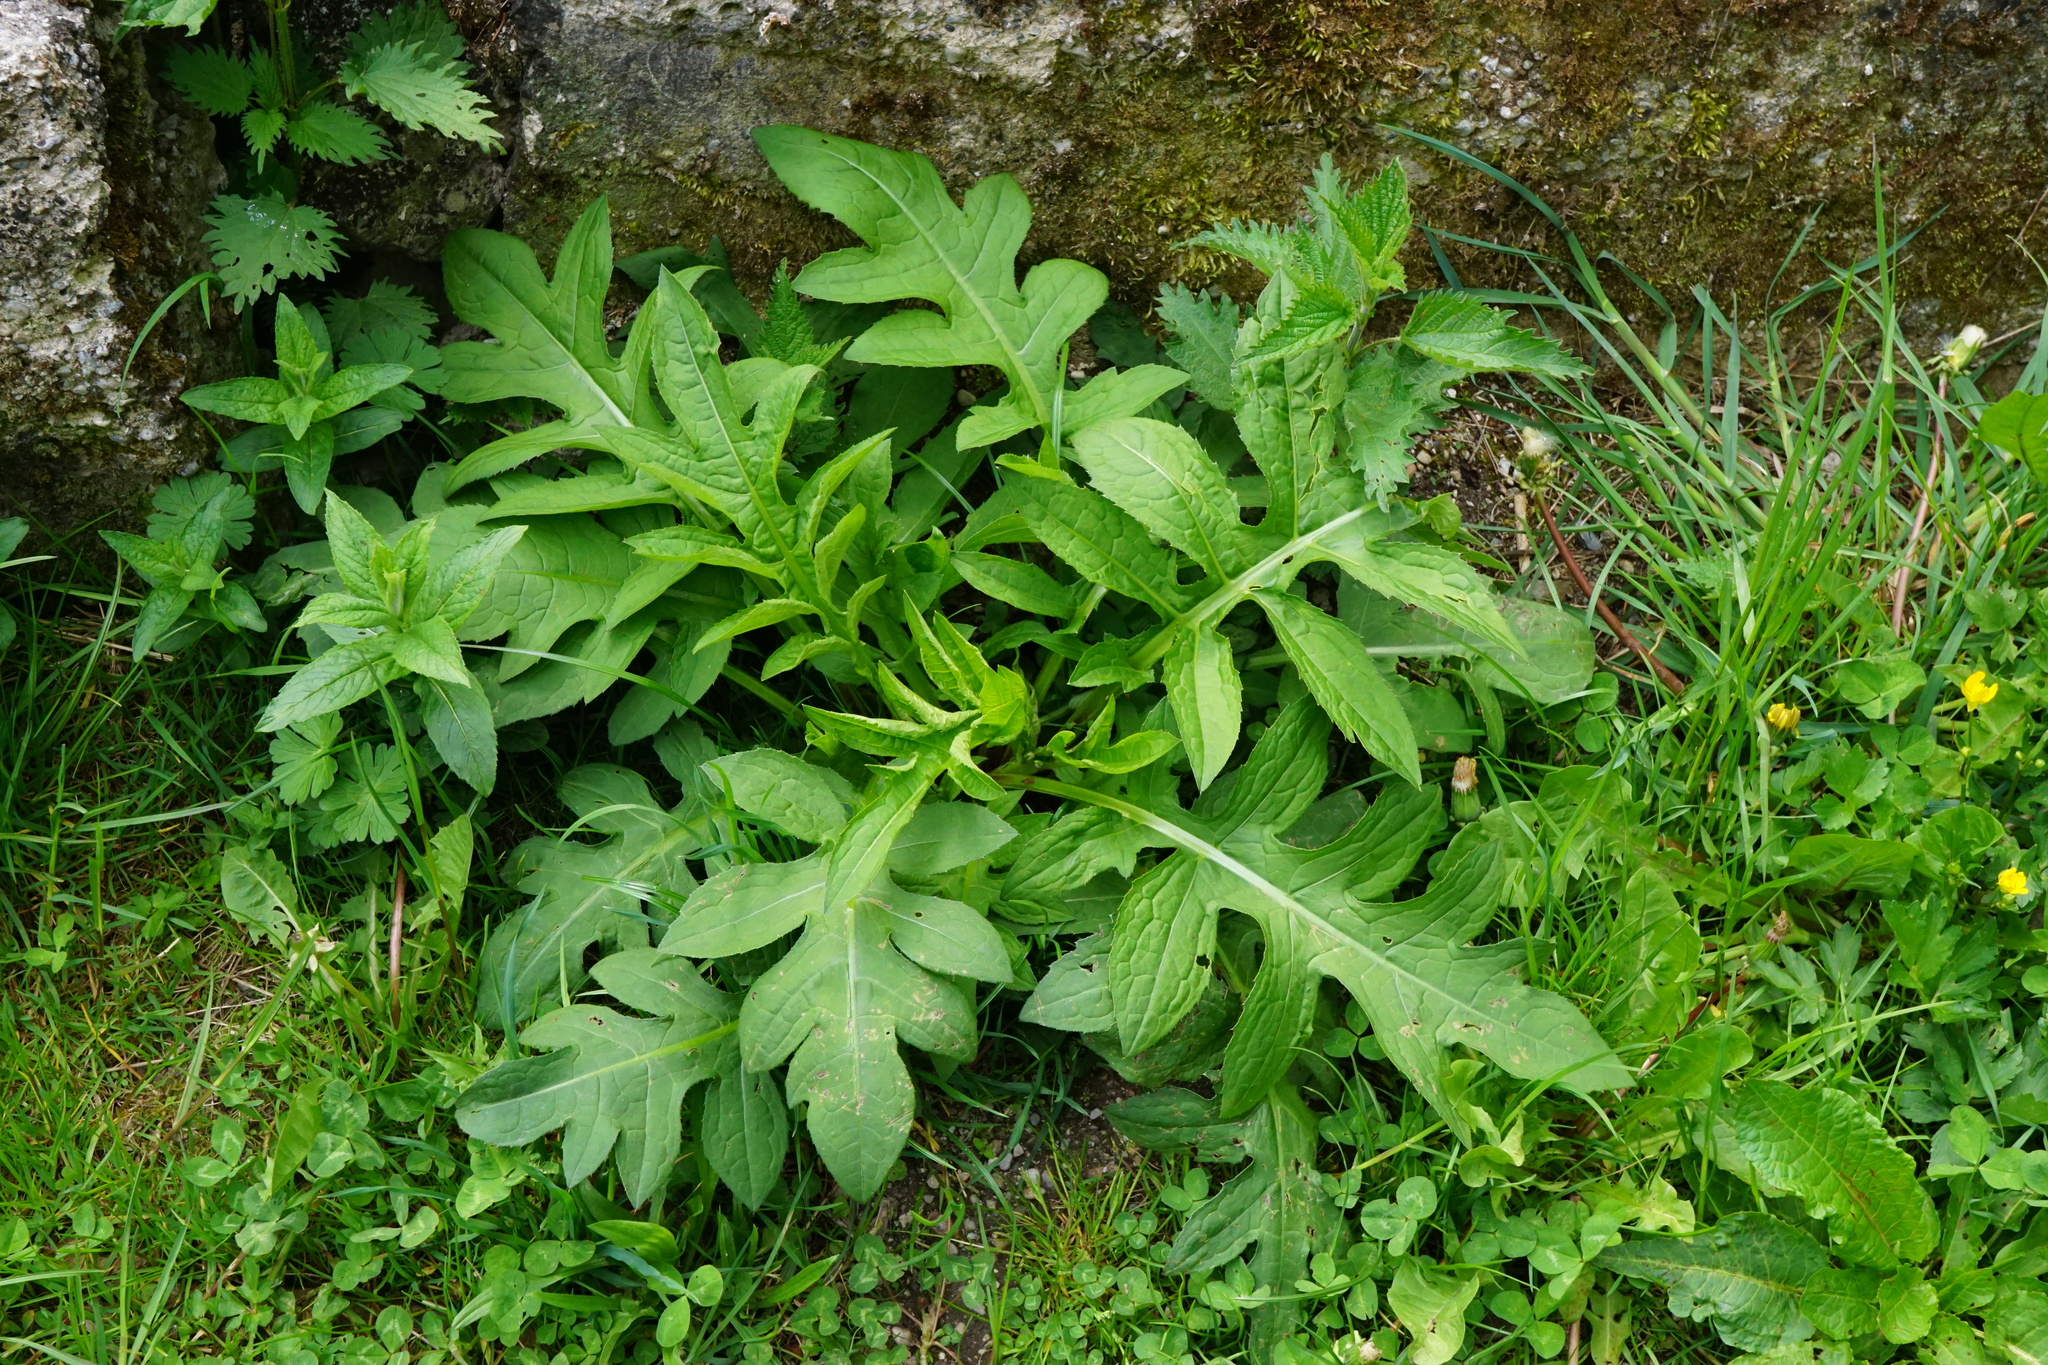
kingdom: Plantae
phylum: Tracheophyta
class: Magnoliopsida
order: Asterales
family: Asteraceae
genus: Cirsium
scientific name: Cirsium oleraceum
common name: Cabbage thistle
